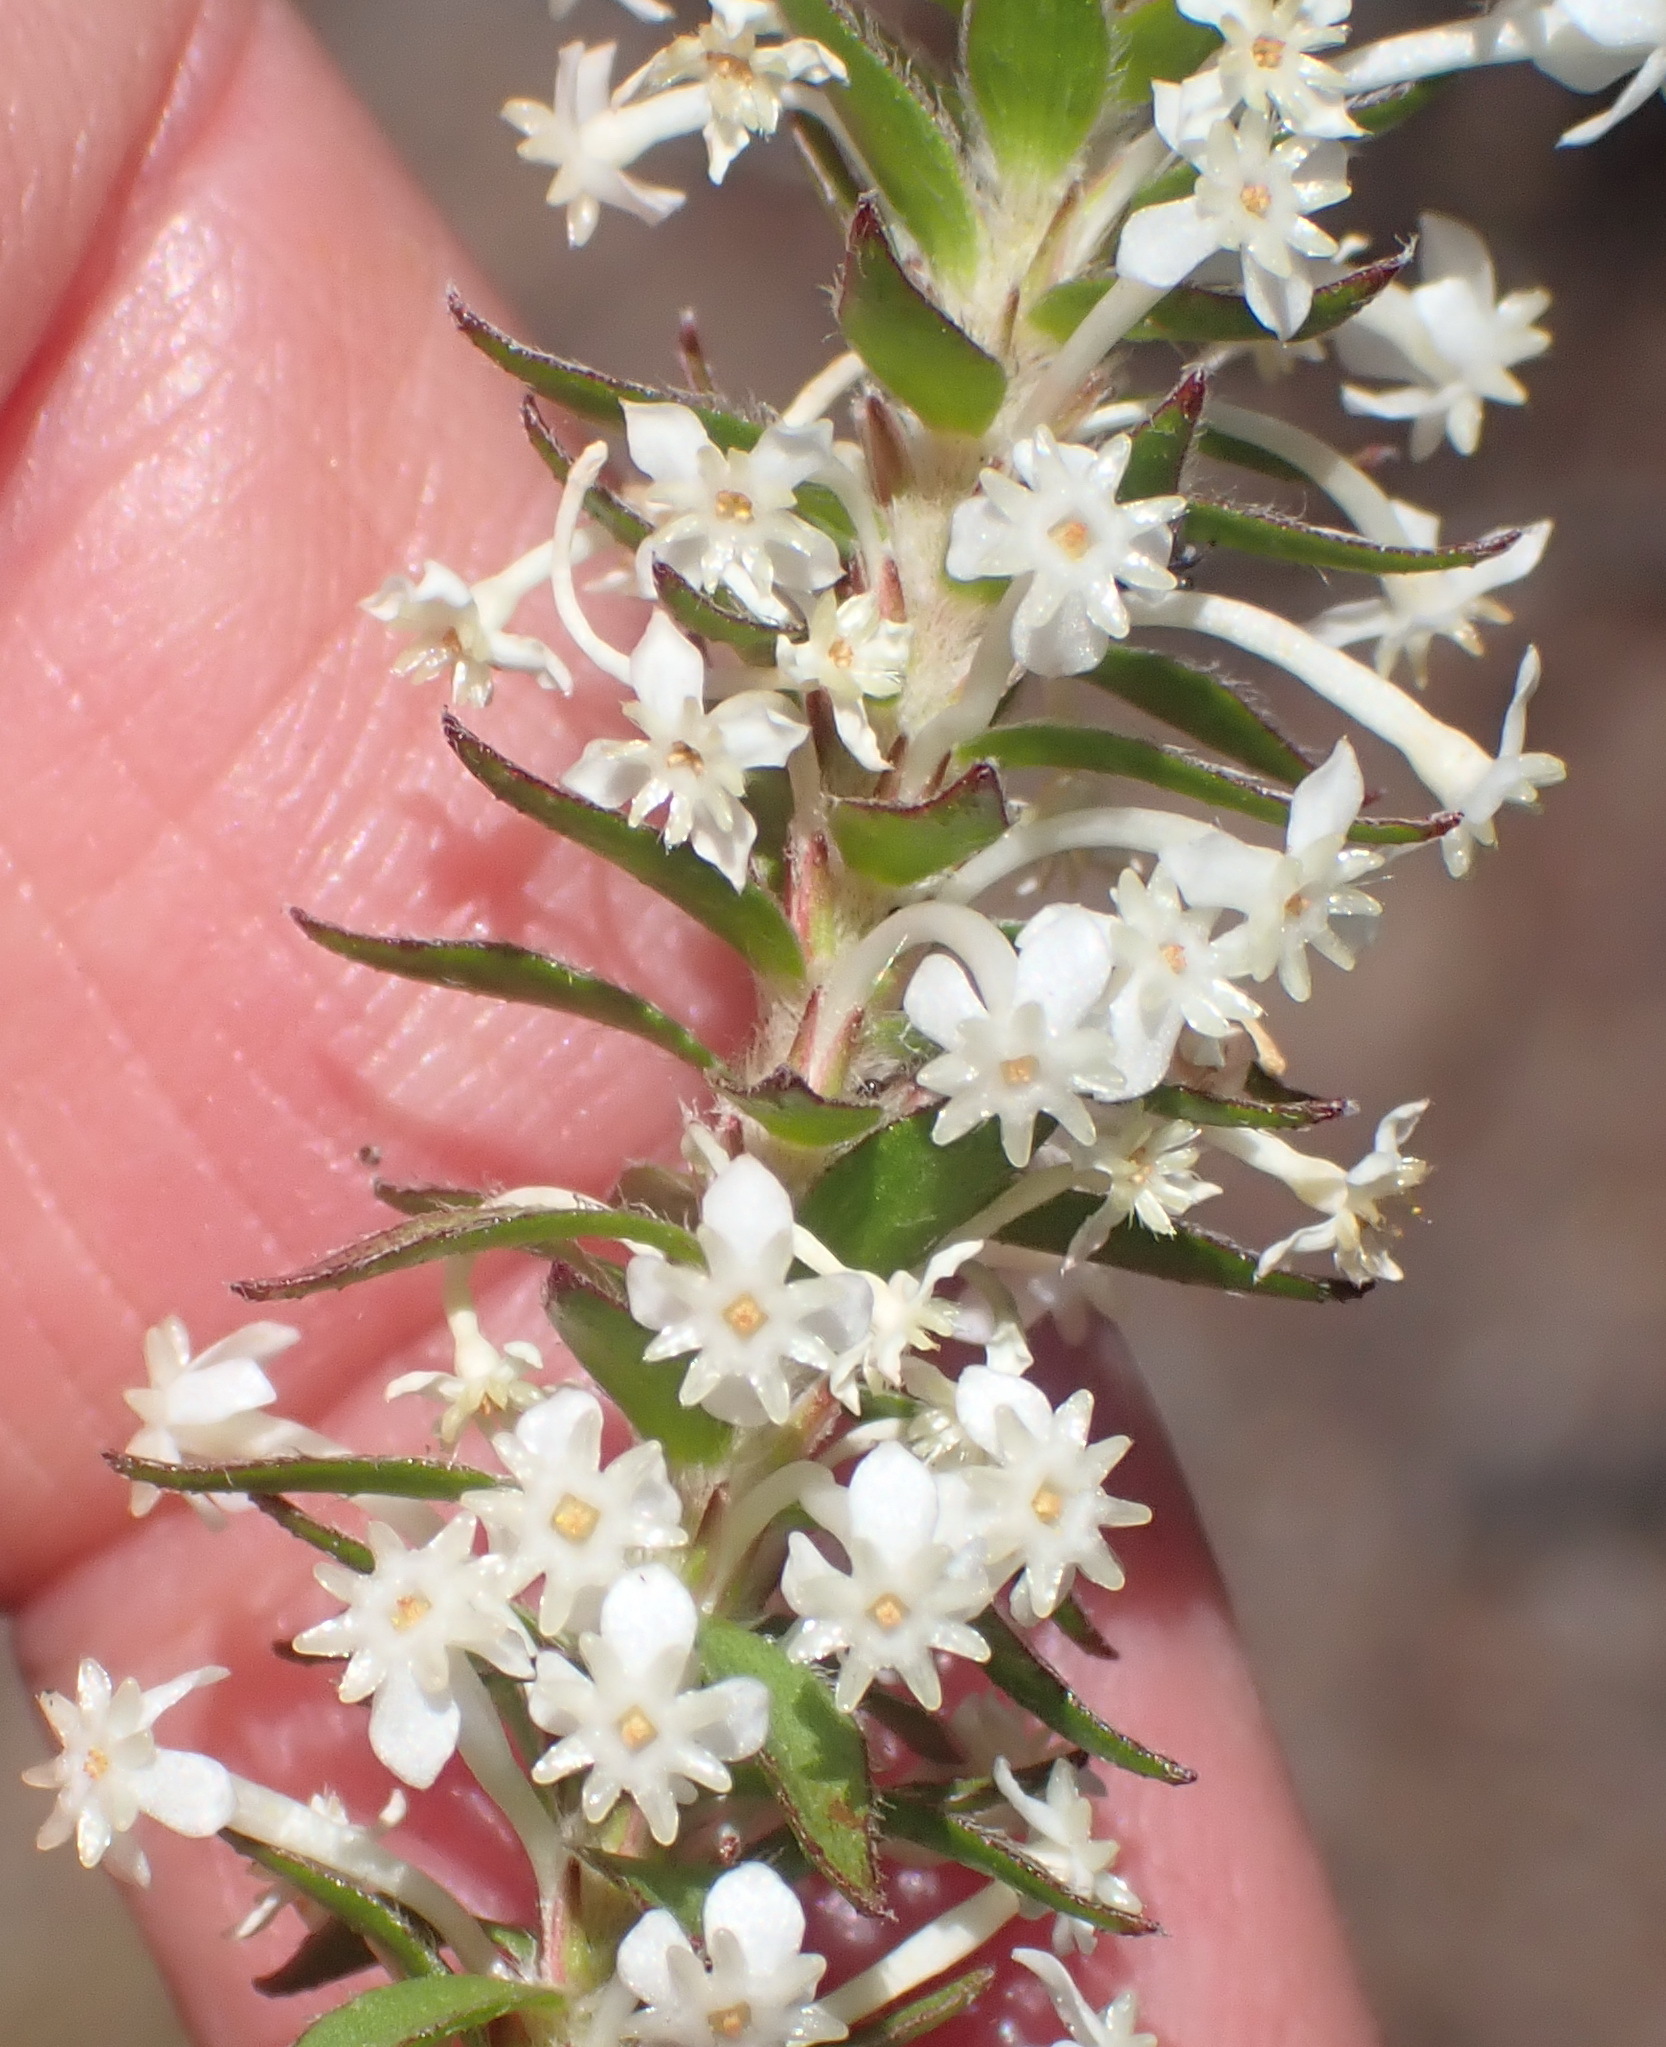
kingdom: Plantae
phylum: Tracheophyta
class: Magnoliopsida
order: Malvales
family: Thymelaeaceae
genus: Struthiola
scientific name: Struthiola hirsuta
